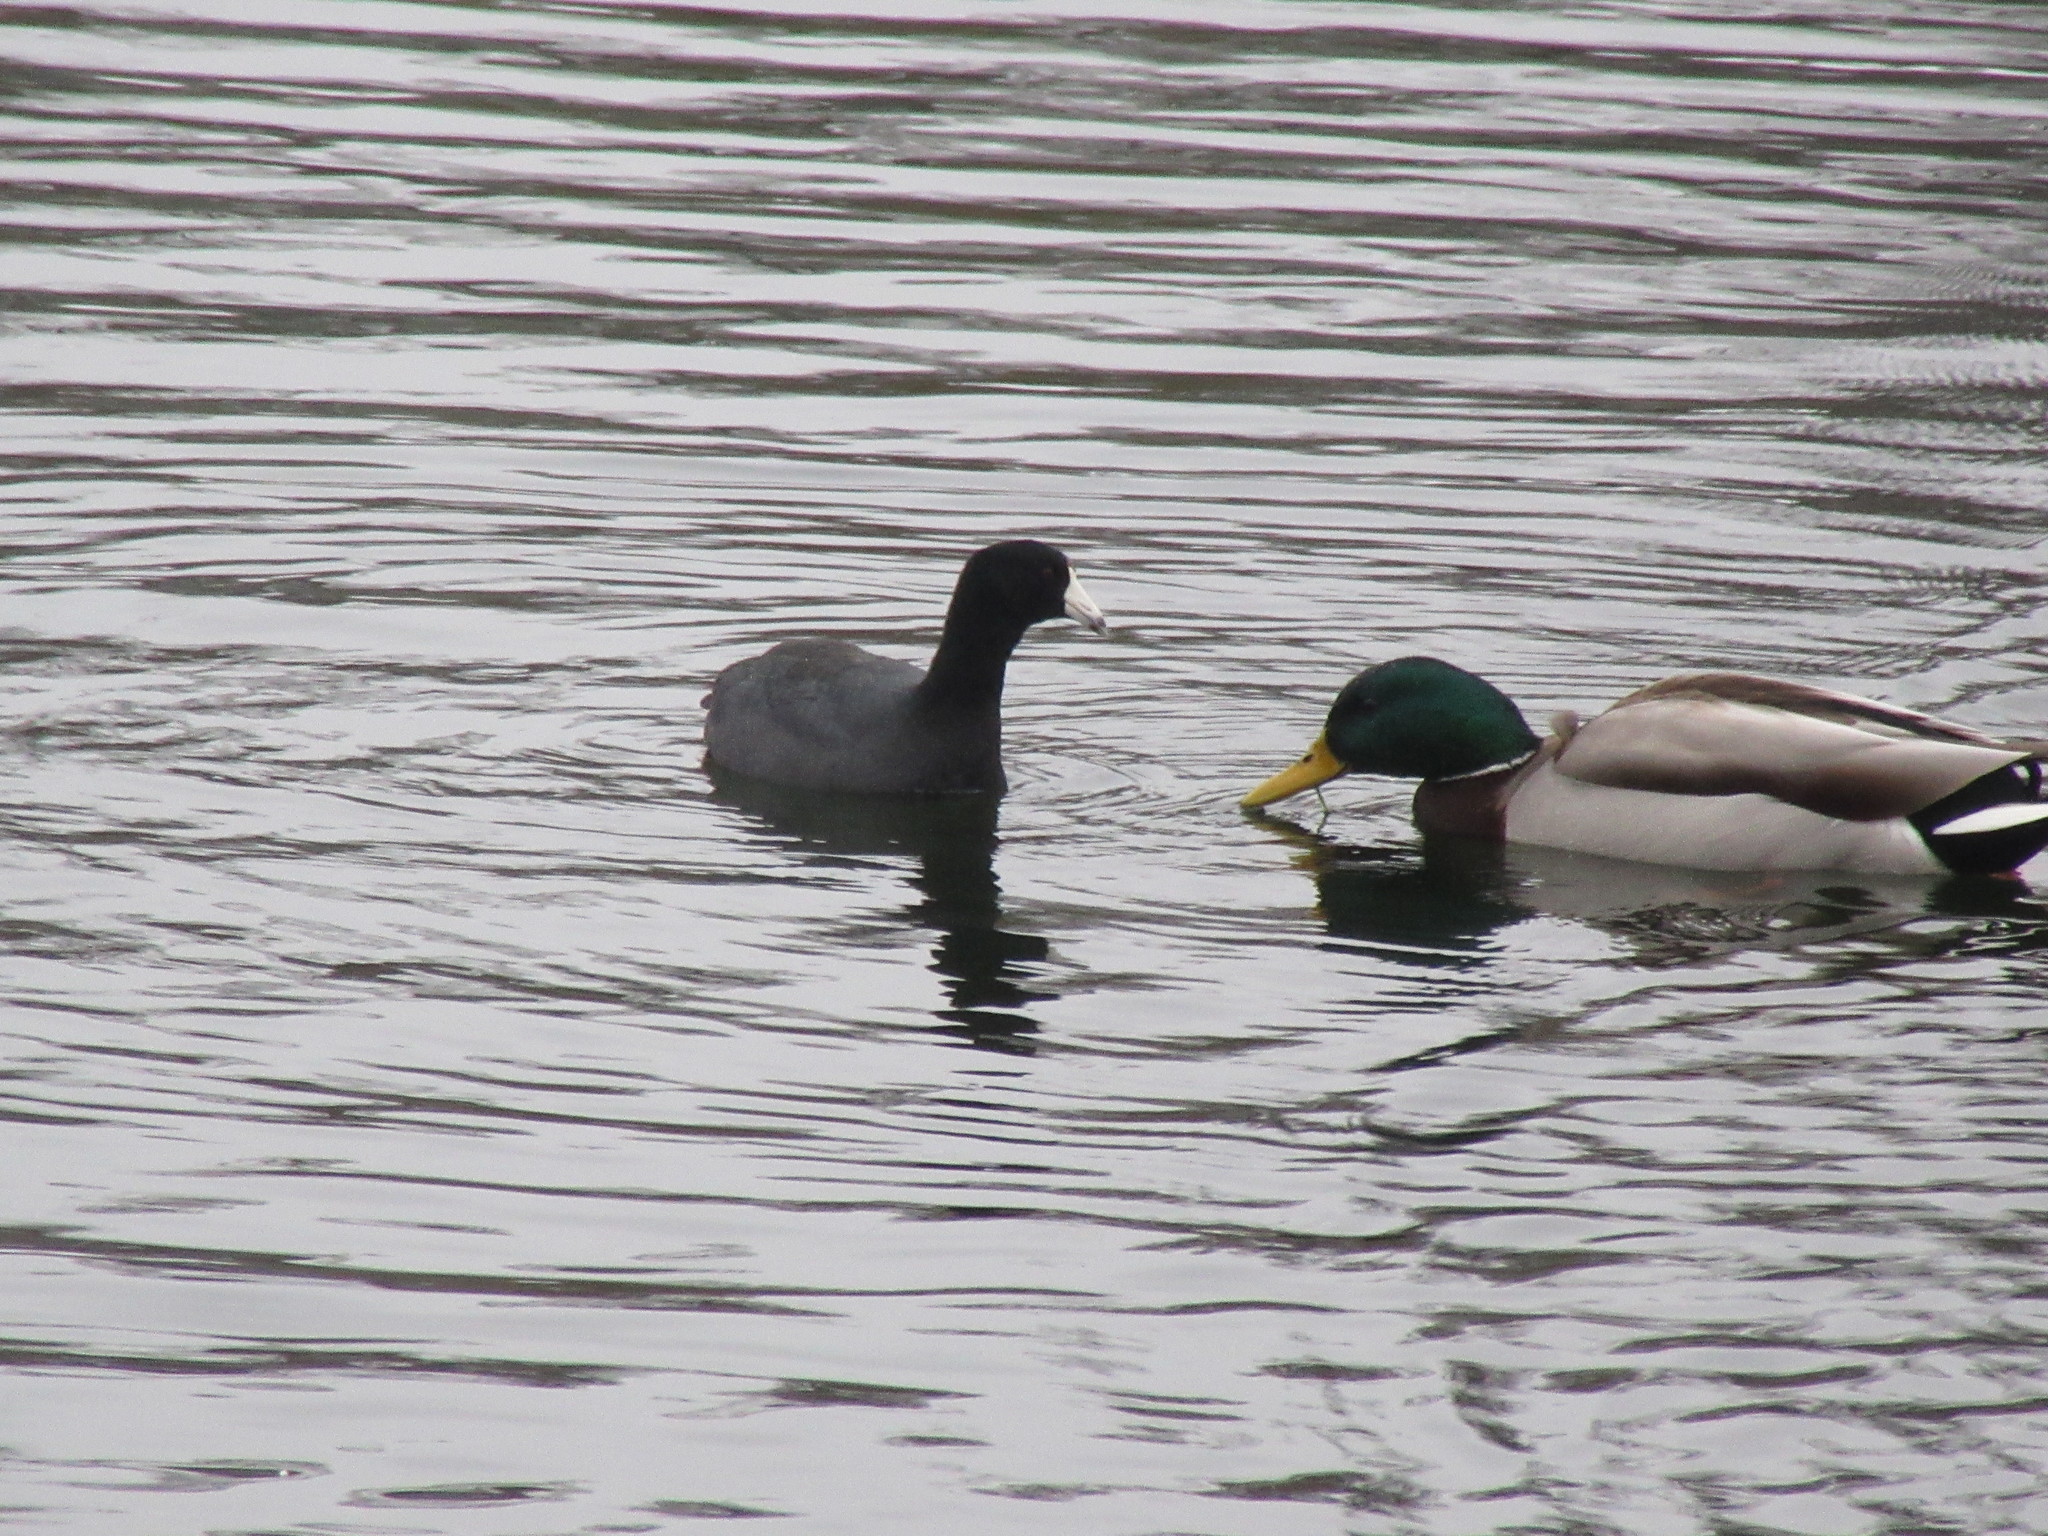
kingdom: Animalia
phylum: Chordata
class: Aves
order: Gruiformes
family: Rallidae
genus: Fulica
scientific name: Fulica americana
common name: American coot
